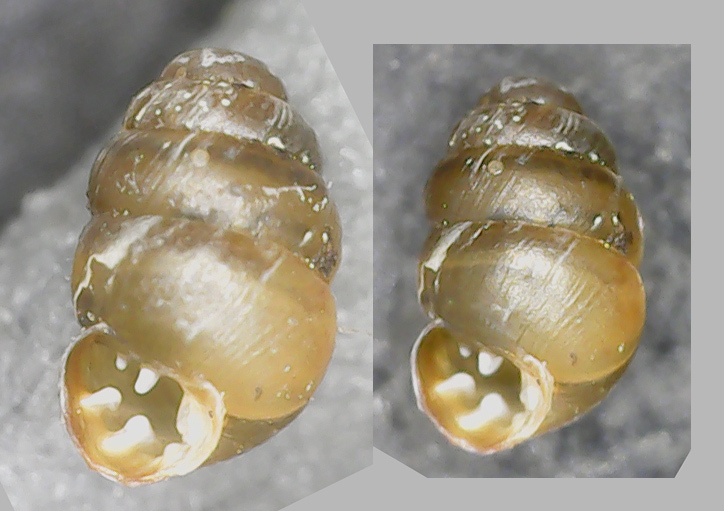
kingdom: Animalia
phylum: Mollusca
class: Gastropoda
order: Stylommatophora
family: Vertiginidae
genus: Vertigo
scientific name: Vertigo pusilla
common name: Wall whorl snail
